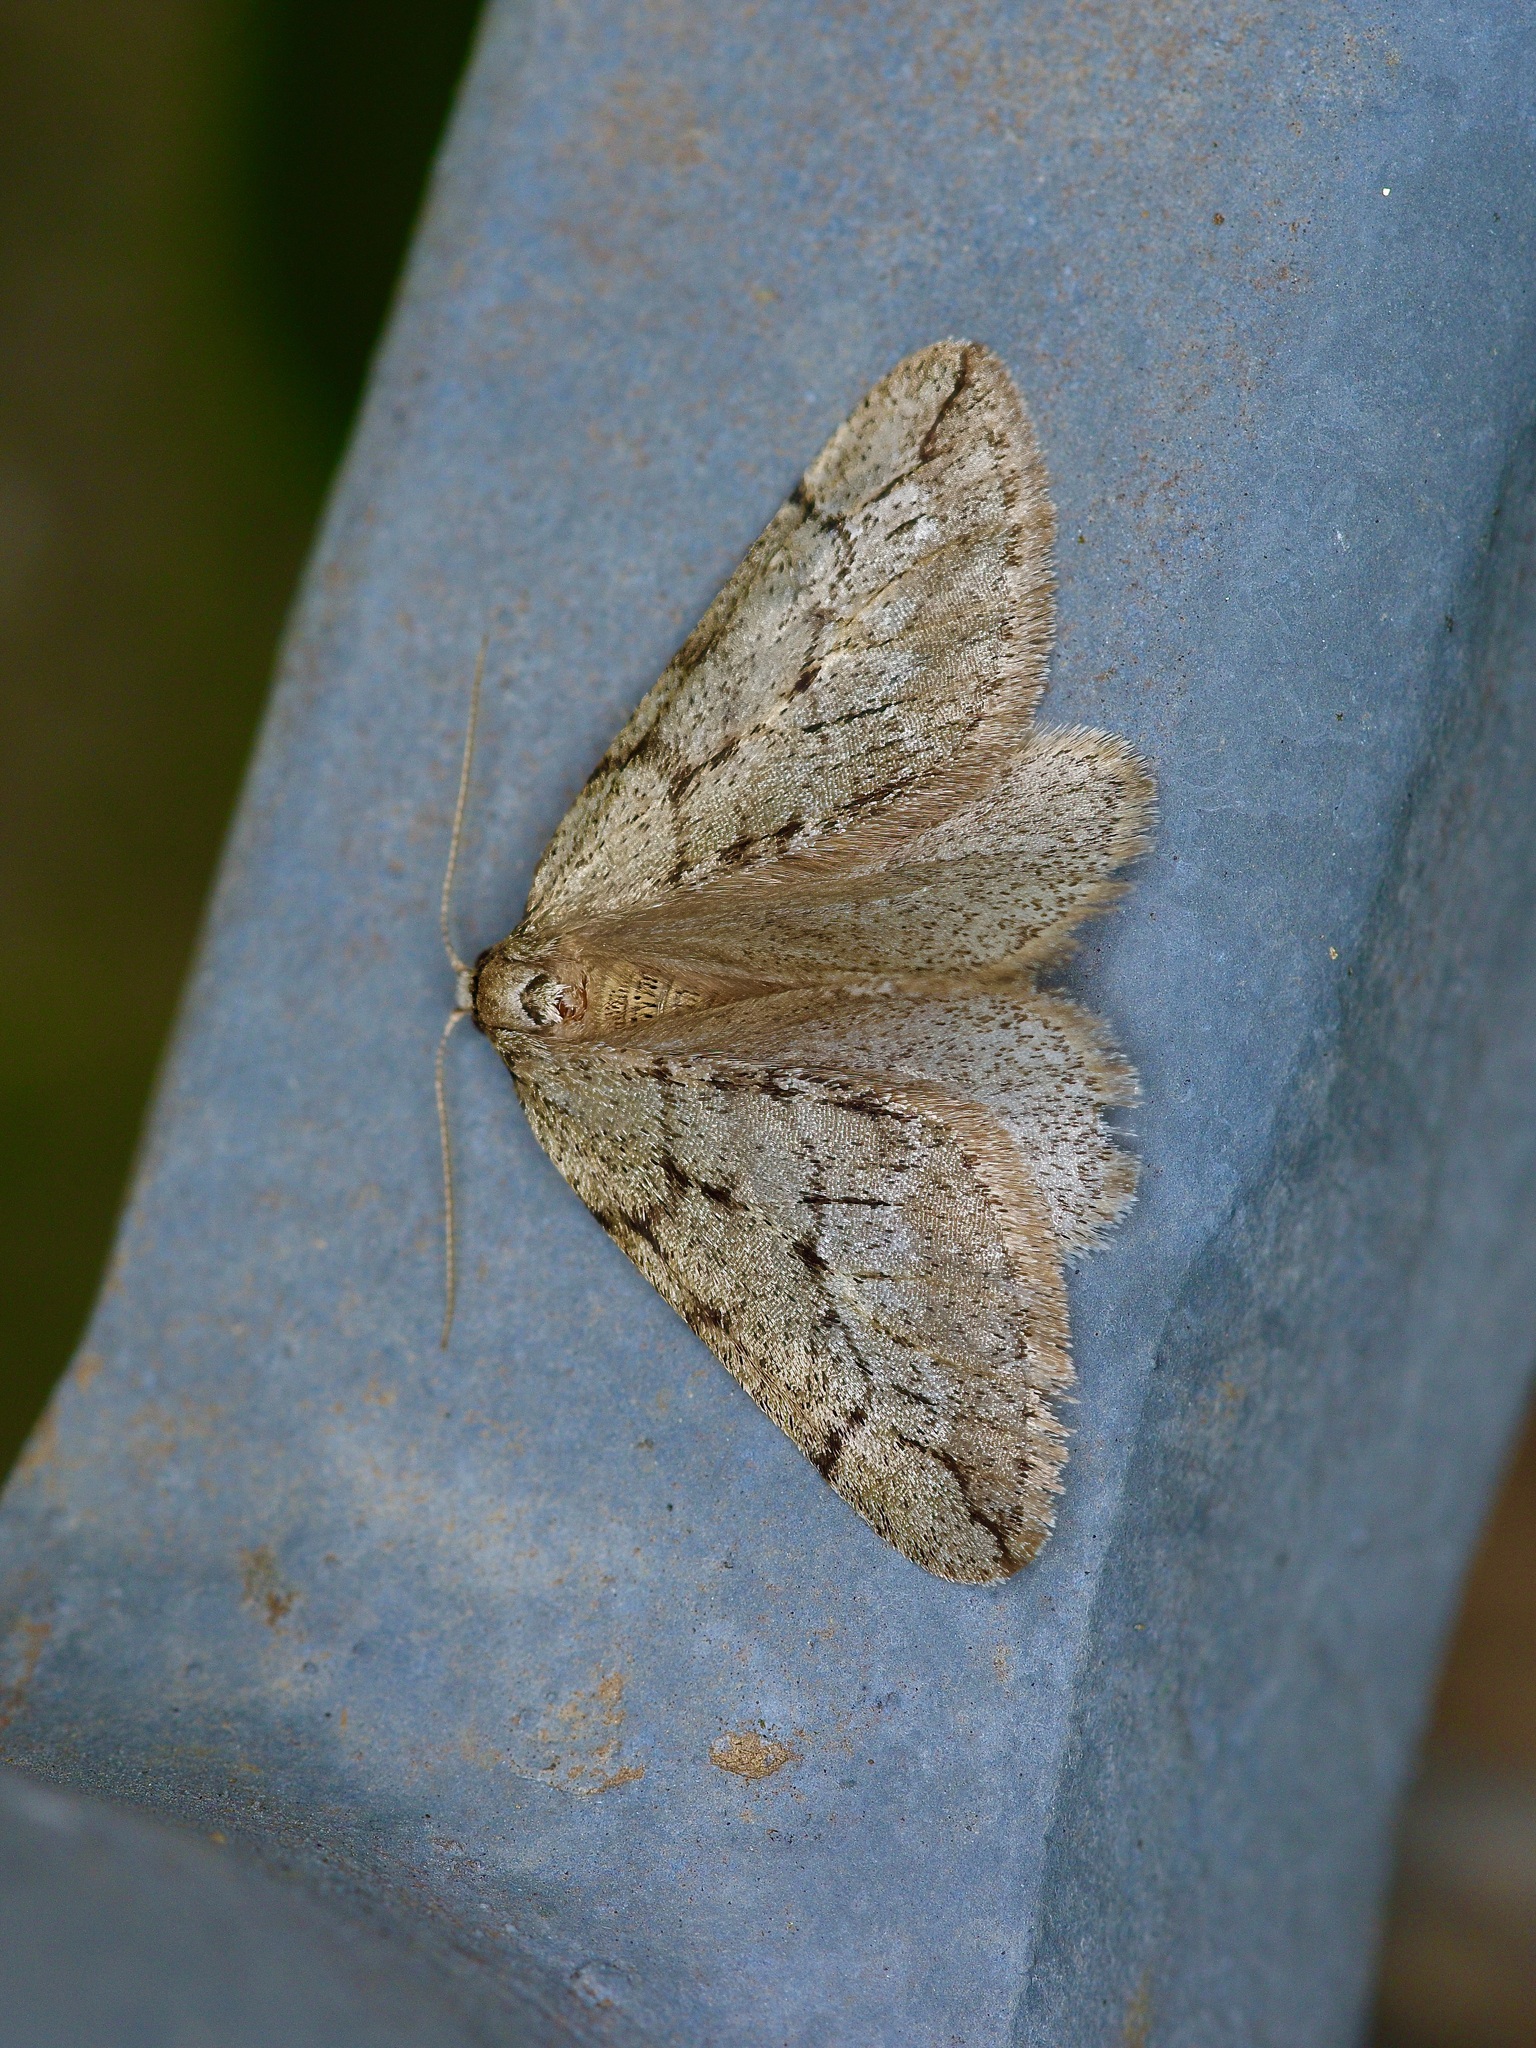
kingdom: Animalia
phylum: Arthropoda
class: Insecta
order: Lepidoptera
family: Geometridae
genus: Paleacrita
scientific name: Paleacrita vernata
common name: Spring cankerworm
